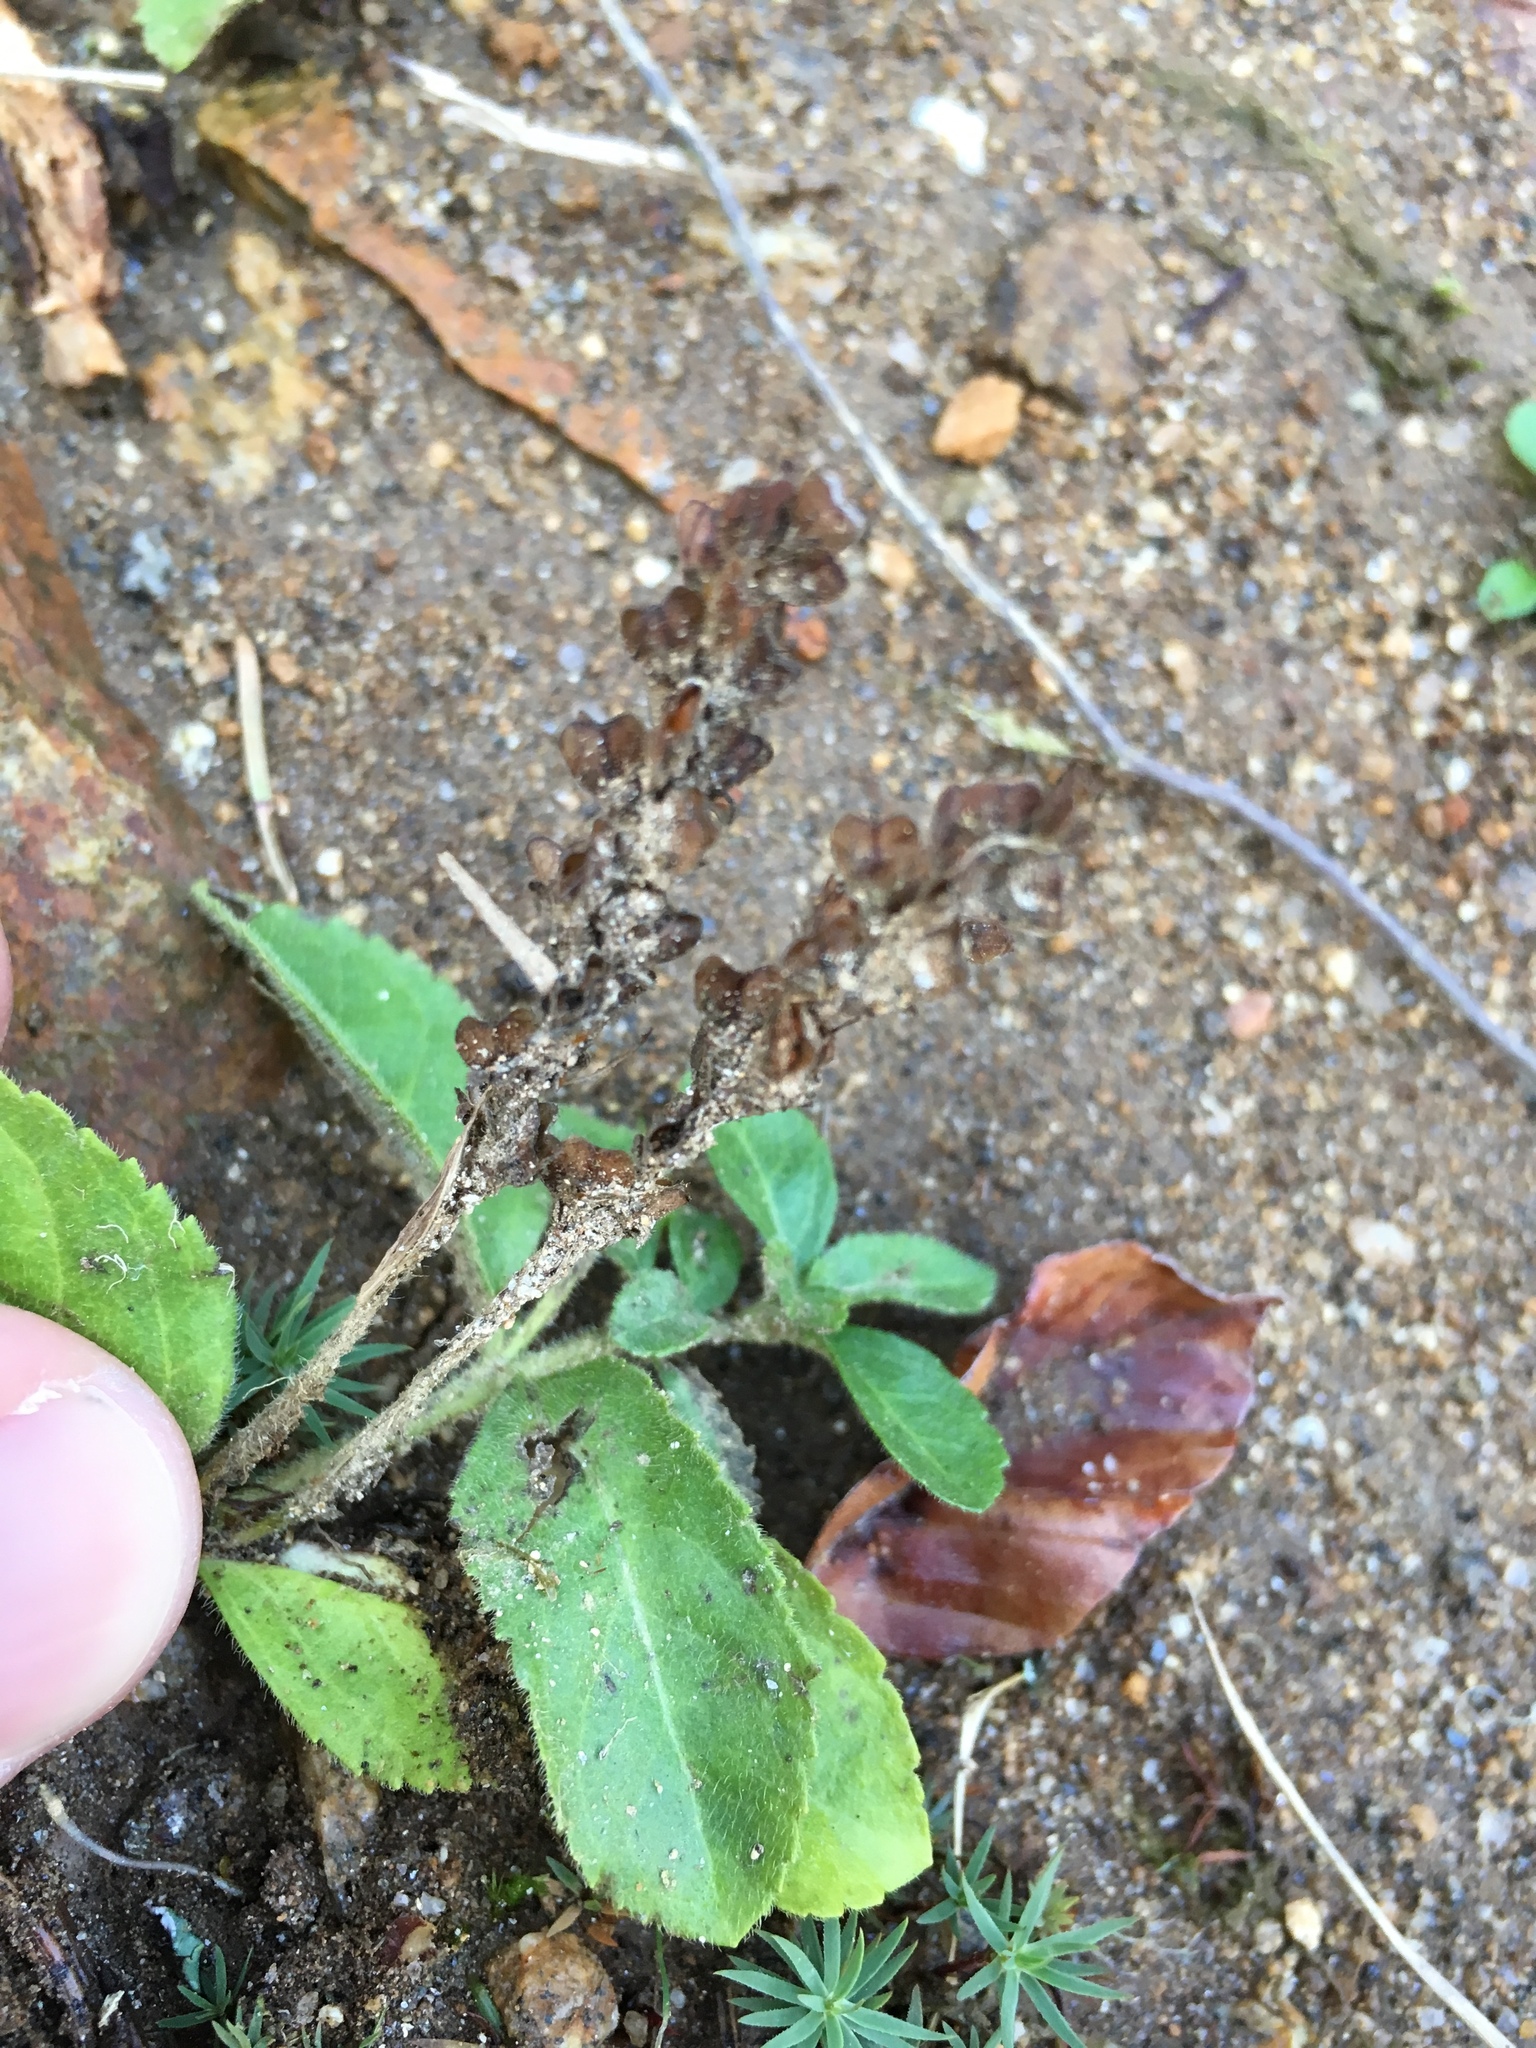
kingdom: Plantae
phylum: Tracheophyta
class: Magnoliopsida
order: Lamiales
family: Plantaginaceae
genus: Veronica
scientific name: Veronica officinalis
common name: Common speedwell
